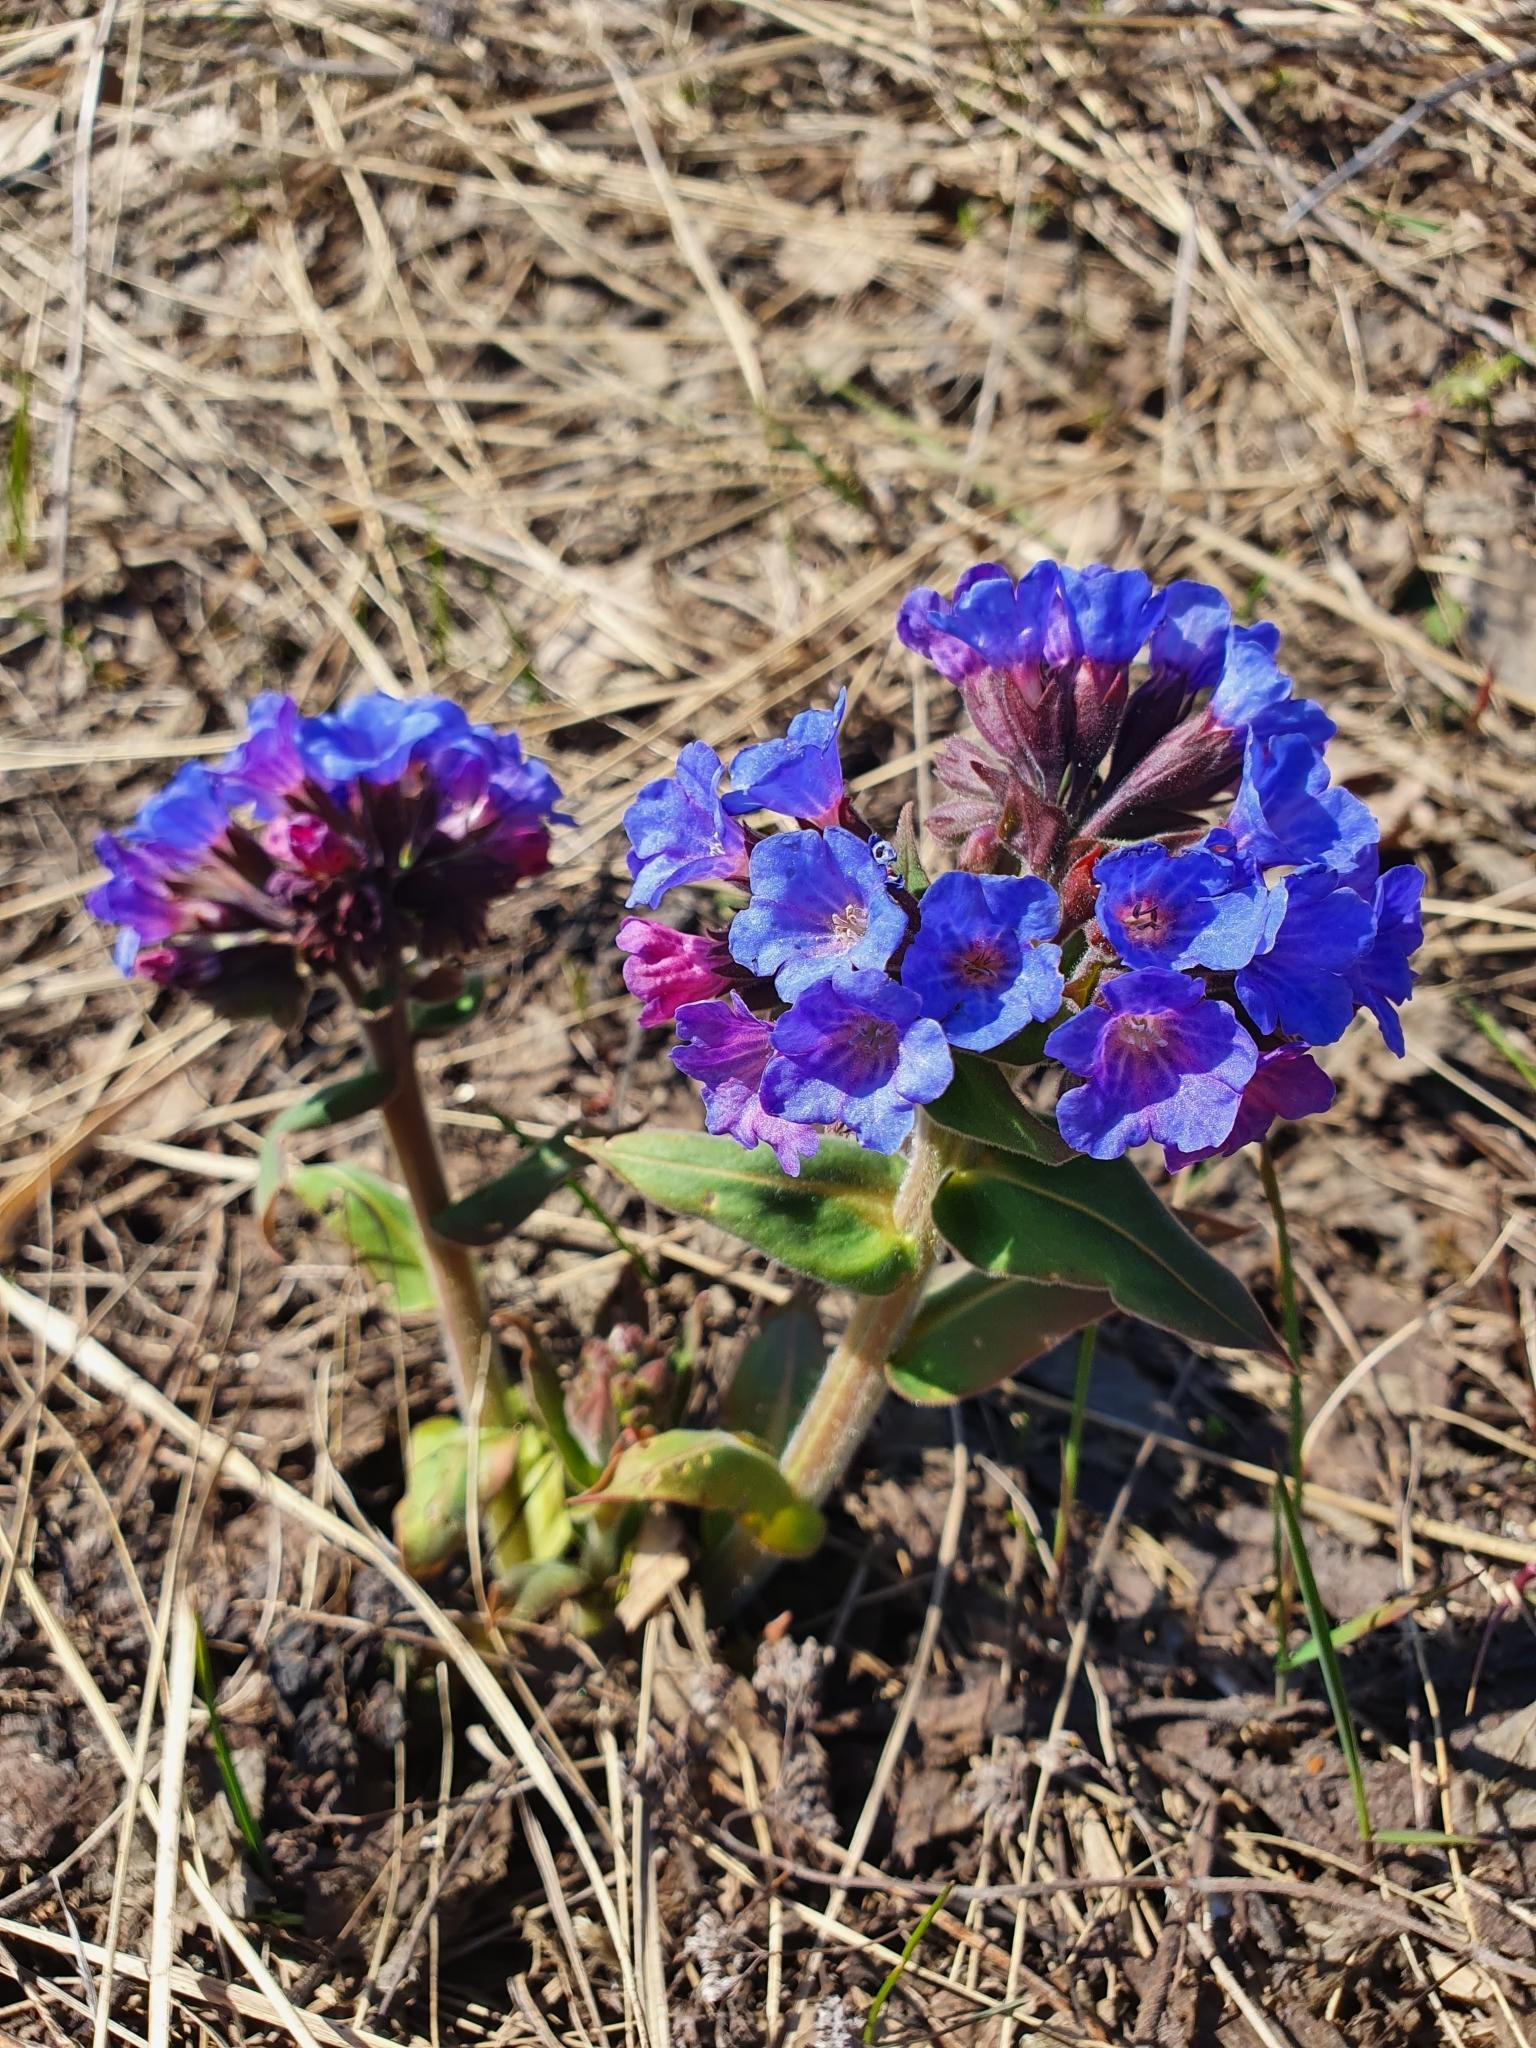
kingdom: Plantae
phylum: Tracheophyta
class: Magnoliopsida
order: Boraginales
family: Boraginaceae
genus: Pulmonaria
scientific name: Pulmonaria mollis
